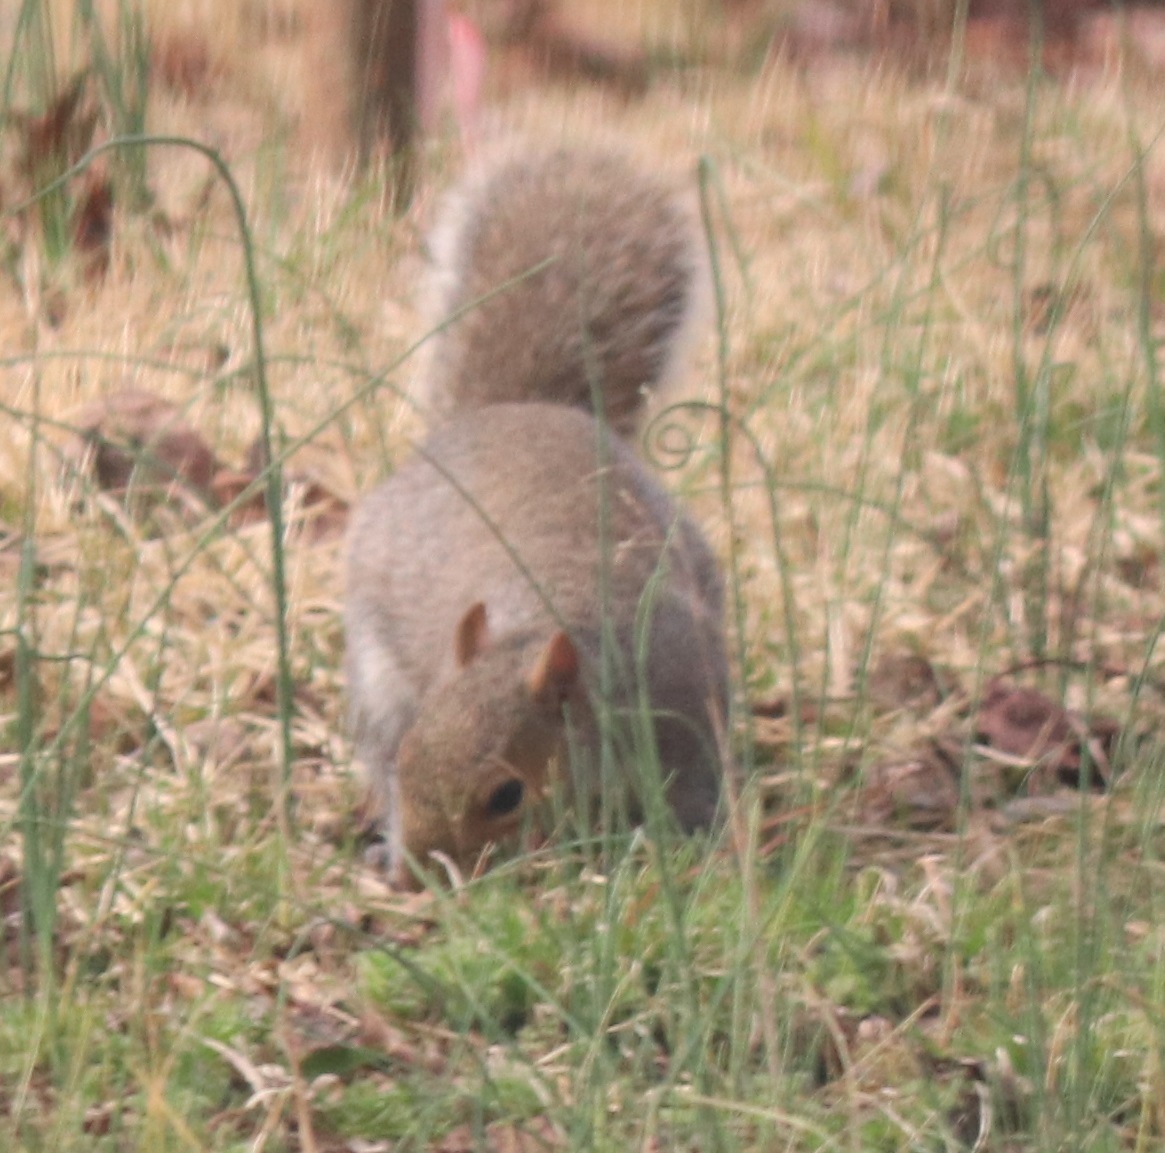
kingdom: Animalia
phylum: Chordata
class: Mammalia
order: Rodentia
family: Sciuridae
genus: Sciurus
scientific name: Sciurus carolinensis
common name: Eastern gray squirrel
